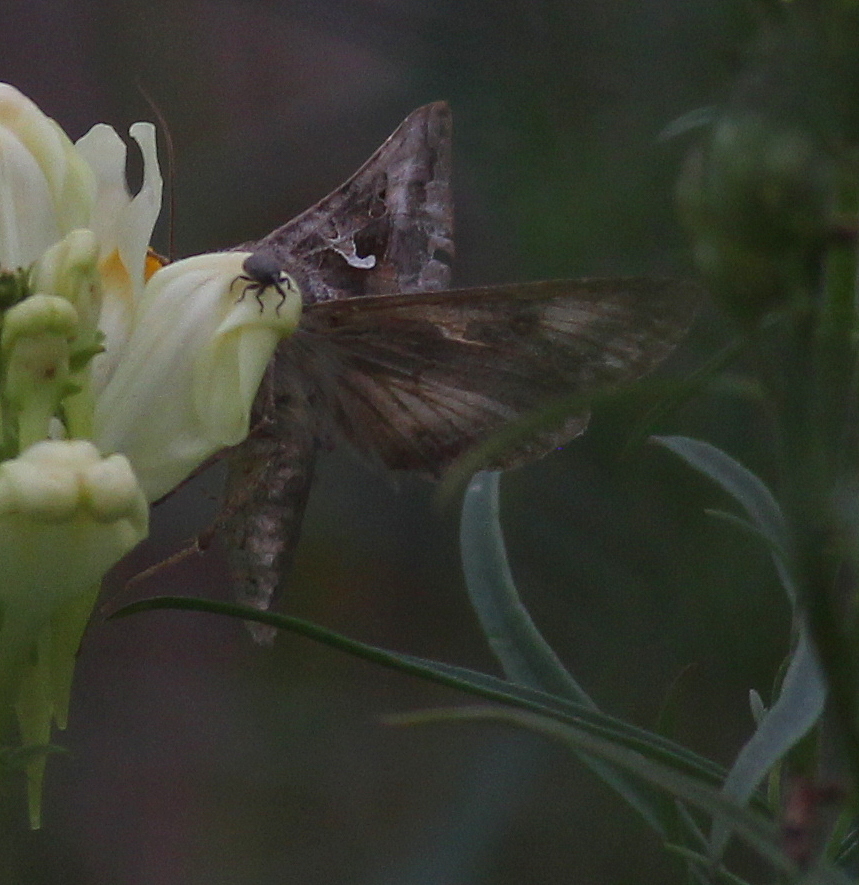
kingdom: Animalia
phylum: Arthropoda
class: Insecta
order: Lepidoptera
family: Noctuidae
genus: Autographa
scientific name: Autographa gamma
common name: Silver y
